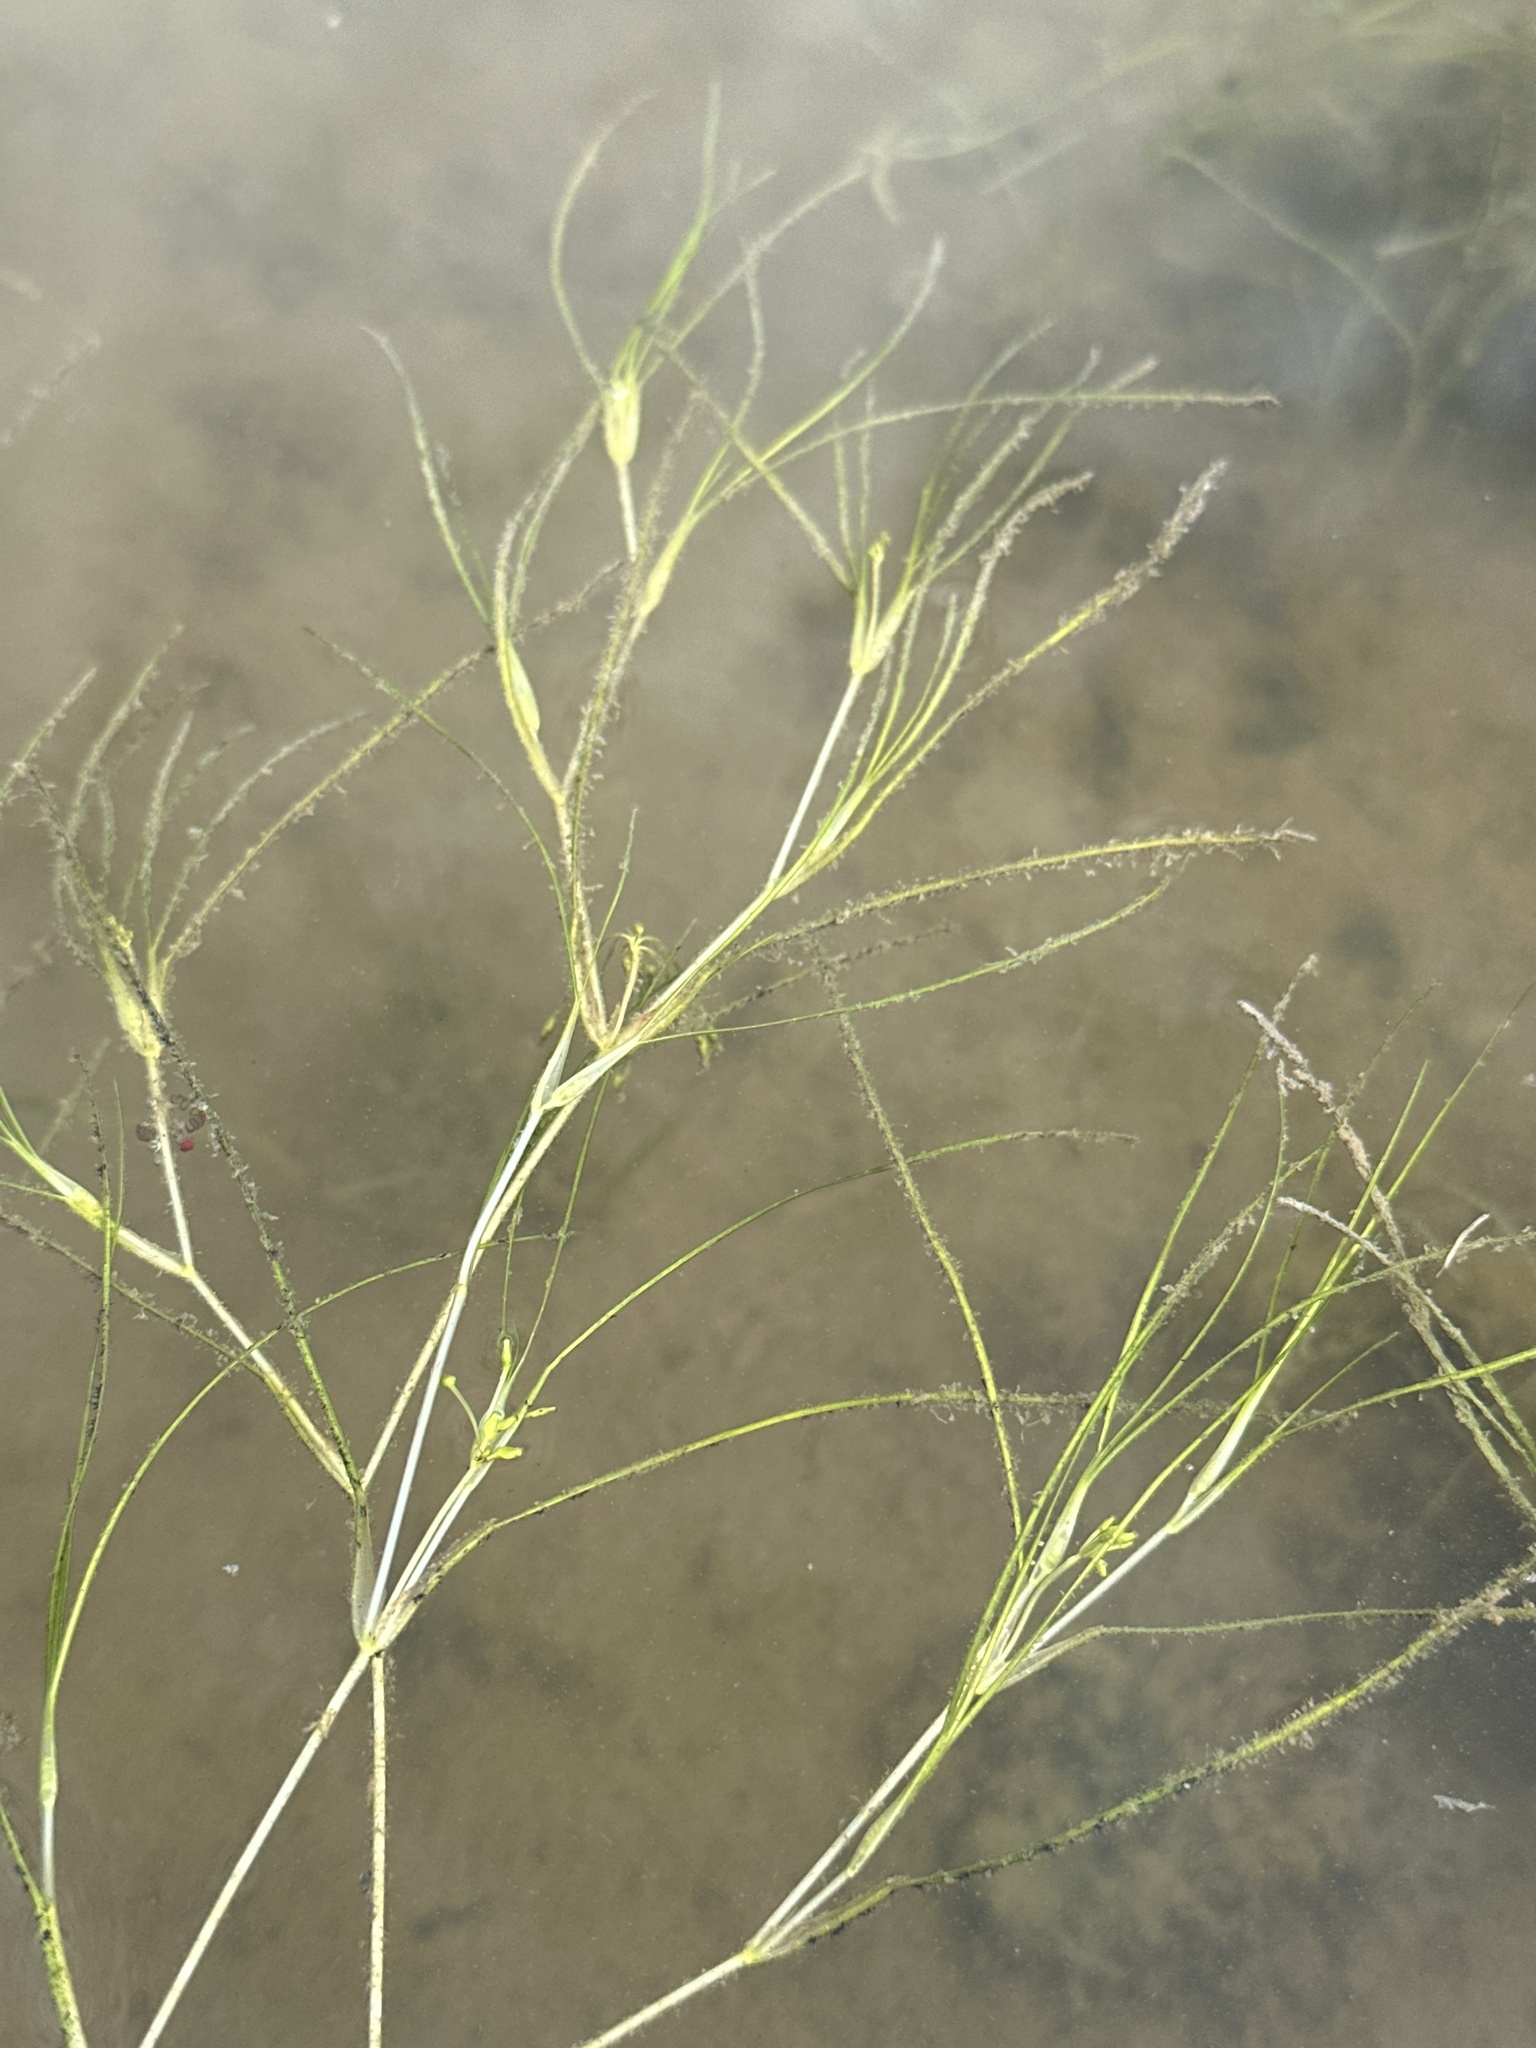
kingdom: Plantae
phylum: Tracheophyta
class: Liliopsida
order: Alismatales
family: Ruppiaceae
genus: Ruppia
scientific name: Ruppia maritima
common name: Beaked tasselweed
